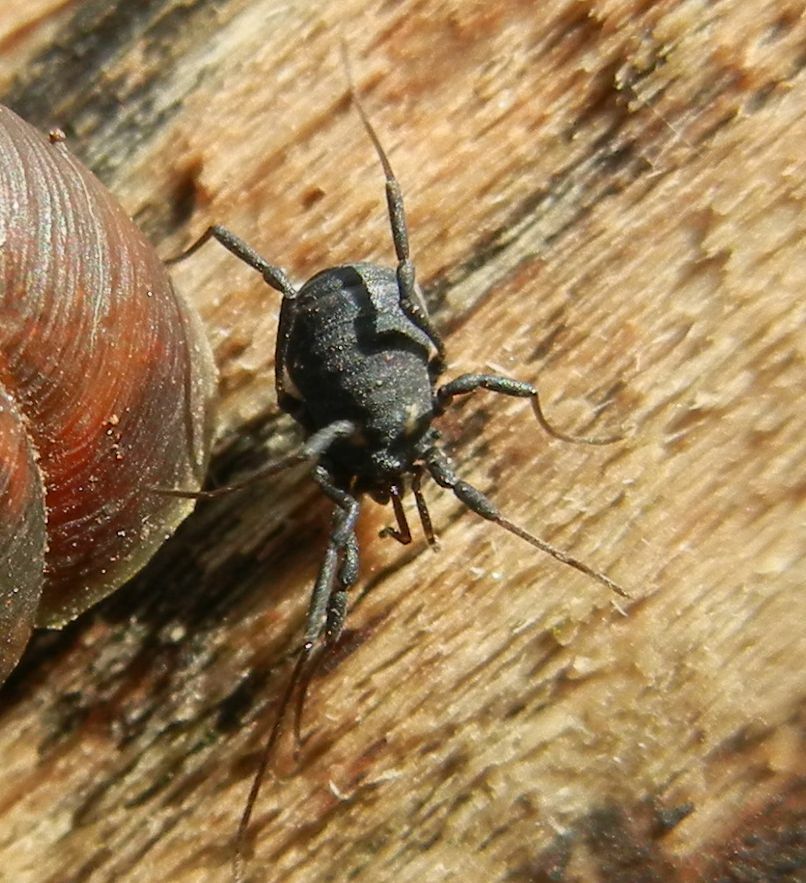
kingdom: Animalia
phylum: Arthropoda
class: Arachnida
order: Opiliones
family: Nemastomatidae
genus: Nemastoma
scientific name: Nemastoma bimaculatum
